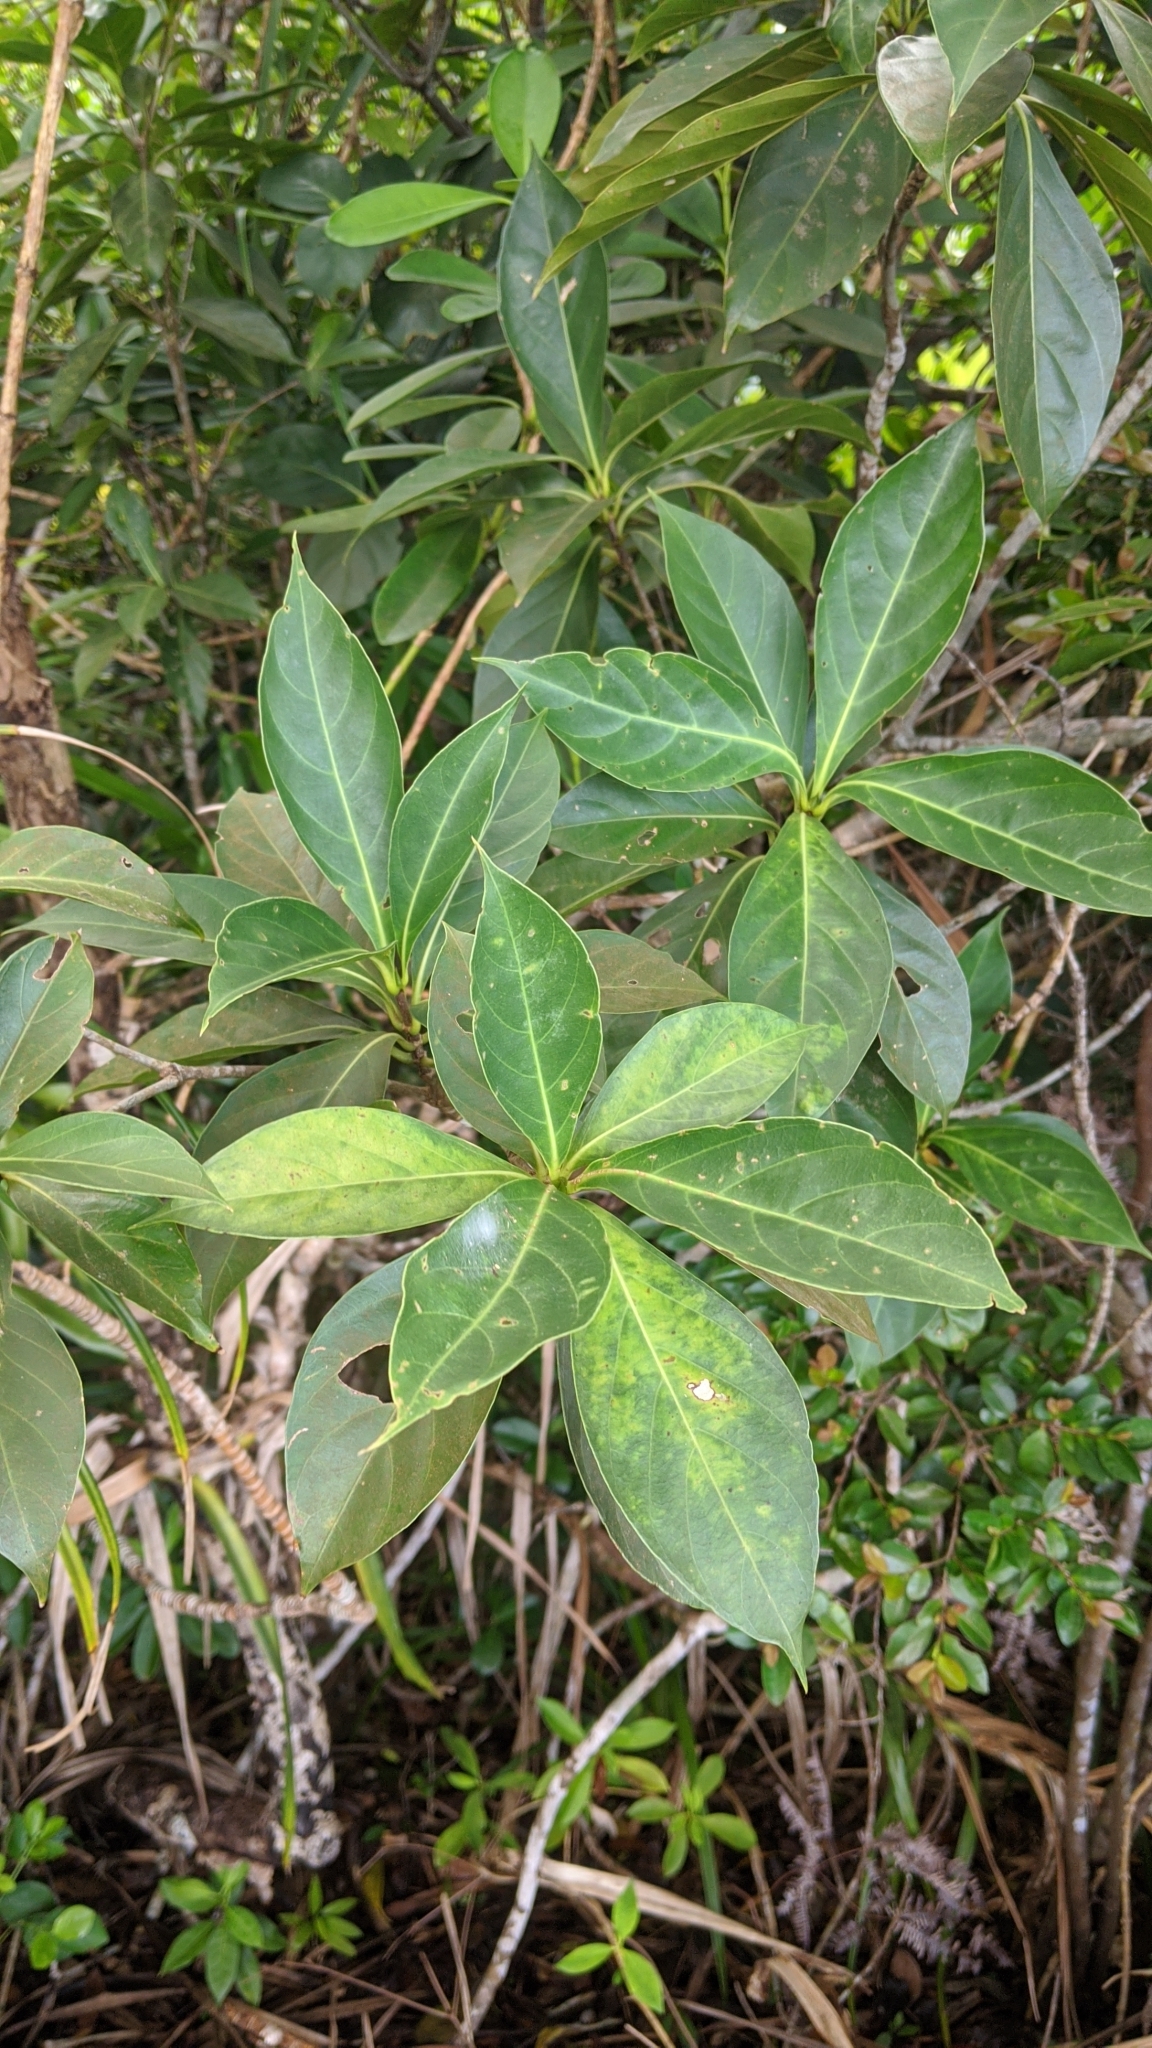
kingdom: Plantae
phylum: Tracheophyta
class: Magnoliopsida
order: Gentianales
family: Rubiaceae
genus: Timonius
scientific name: Timonius arboreus
